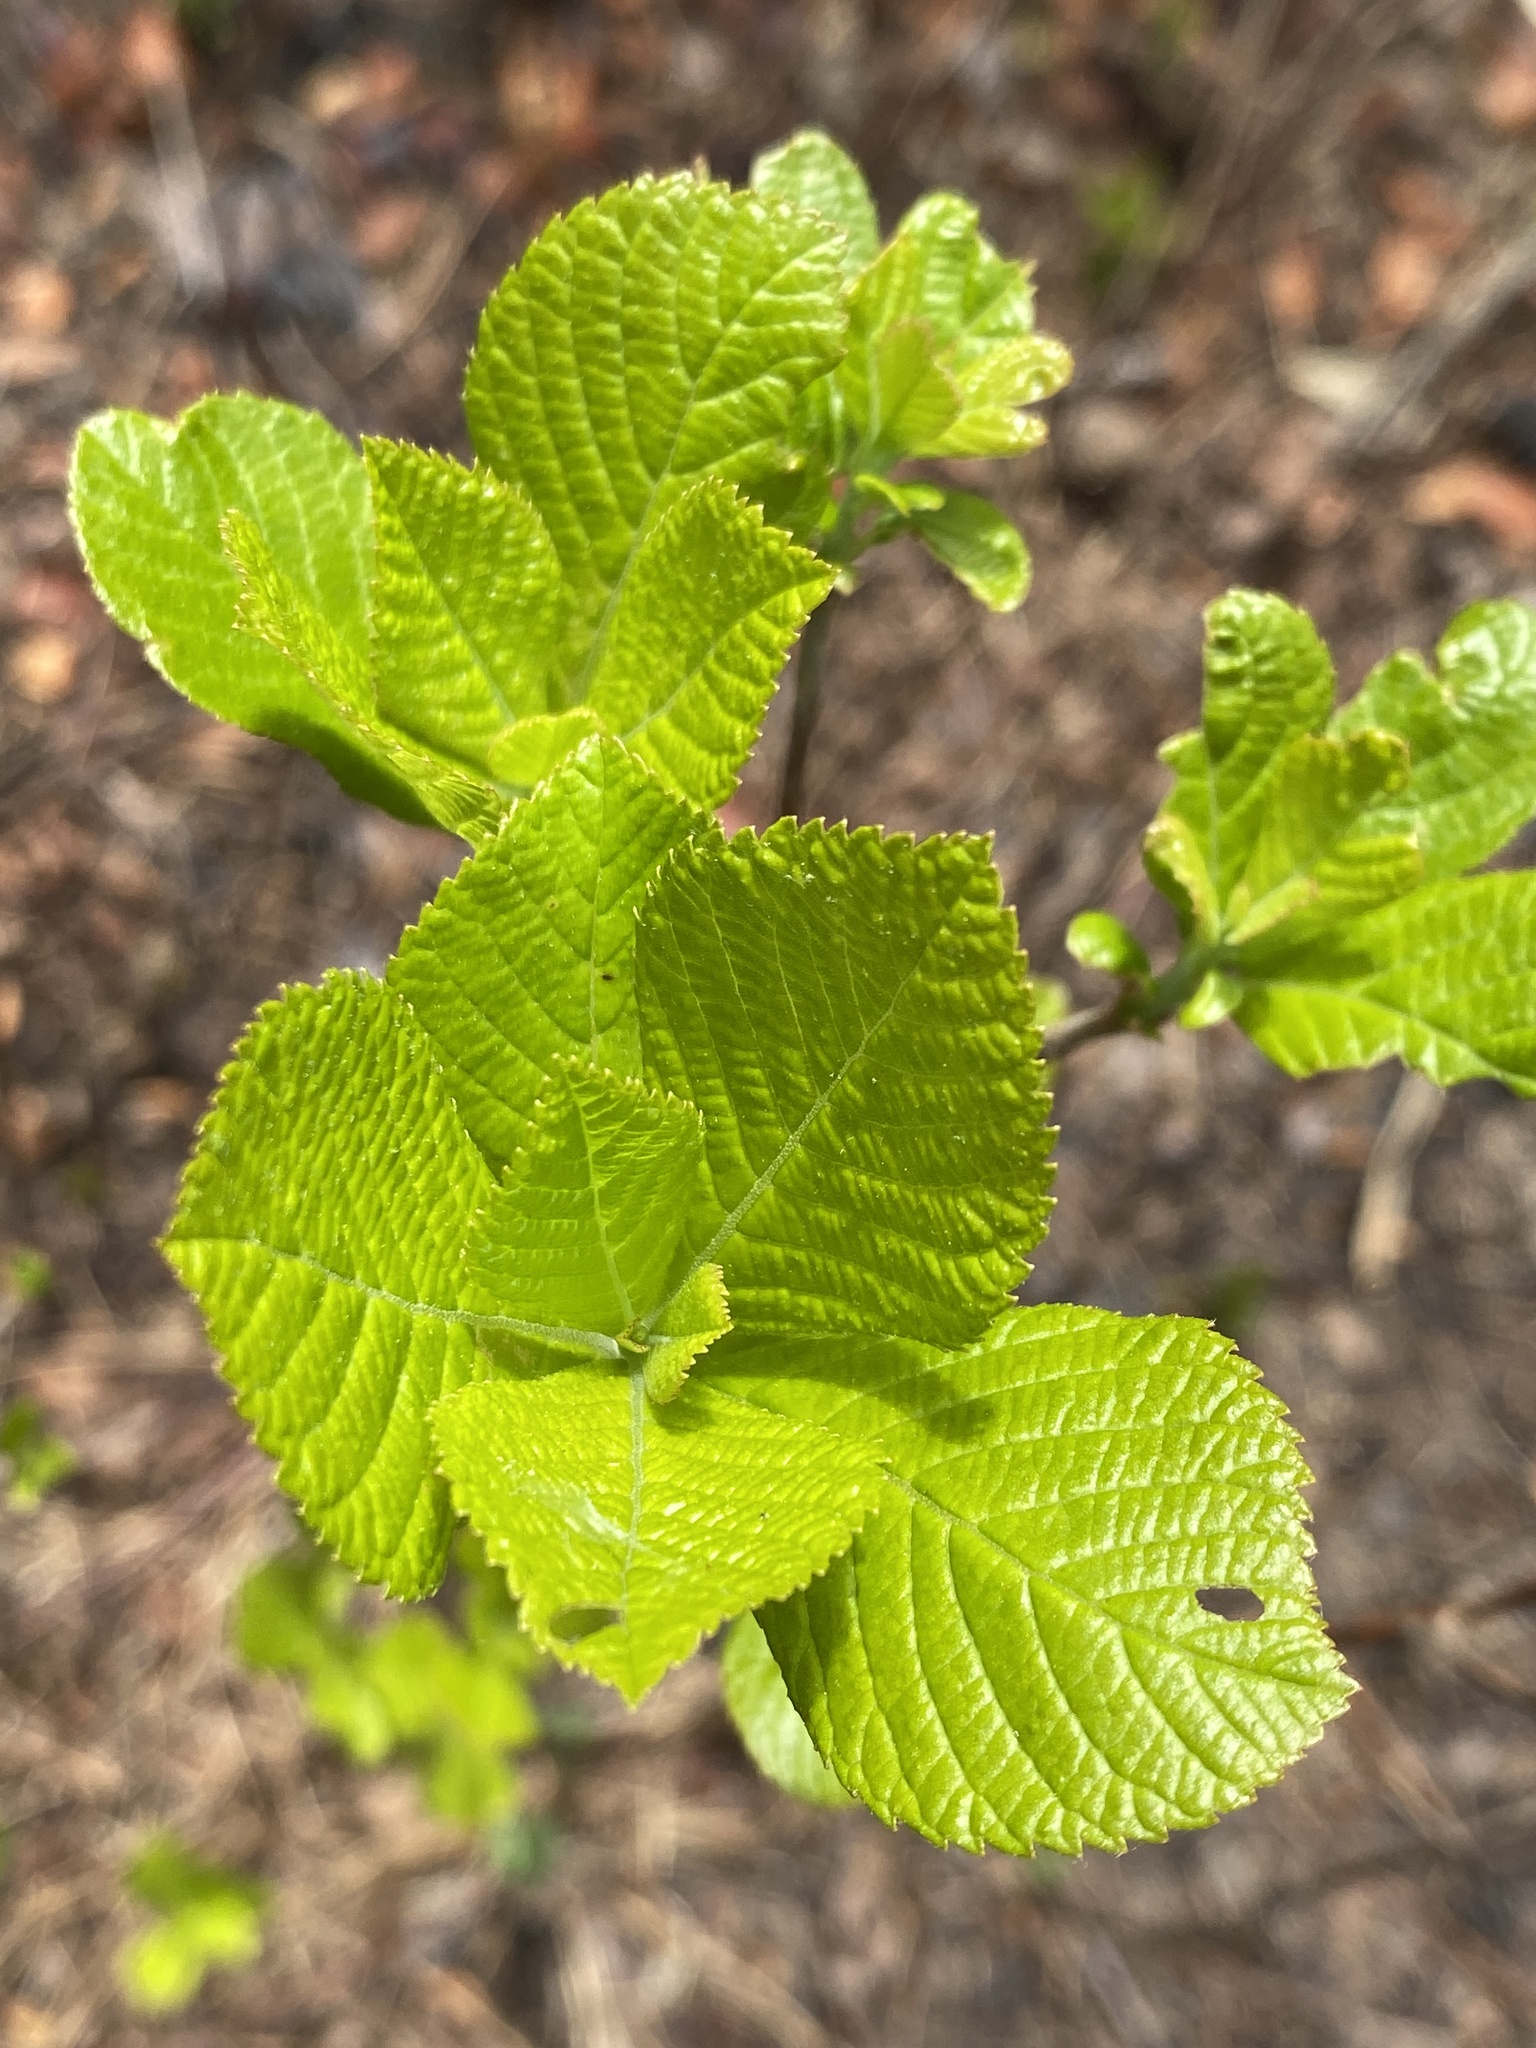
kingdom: Plantae
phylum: Tracheophyta
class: Magnoliopsida
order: Ericales
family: Clethraceae
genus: Clethra
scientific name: Clethra alnifolia
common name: Sweet pepperbush
